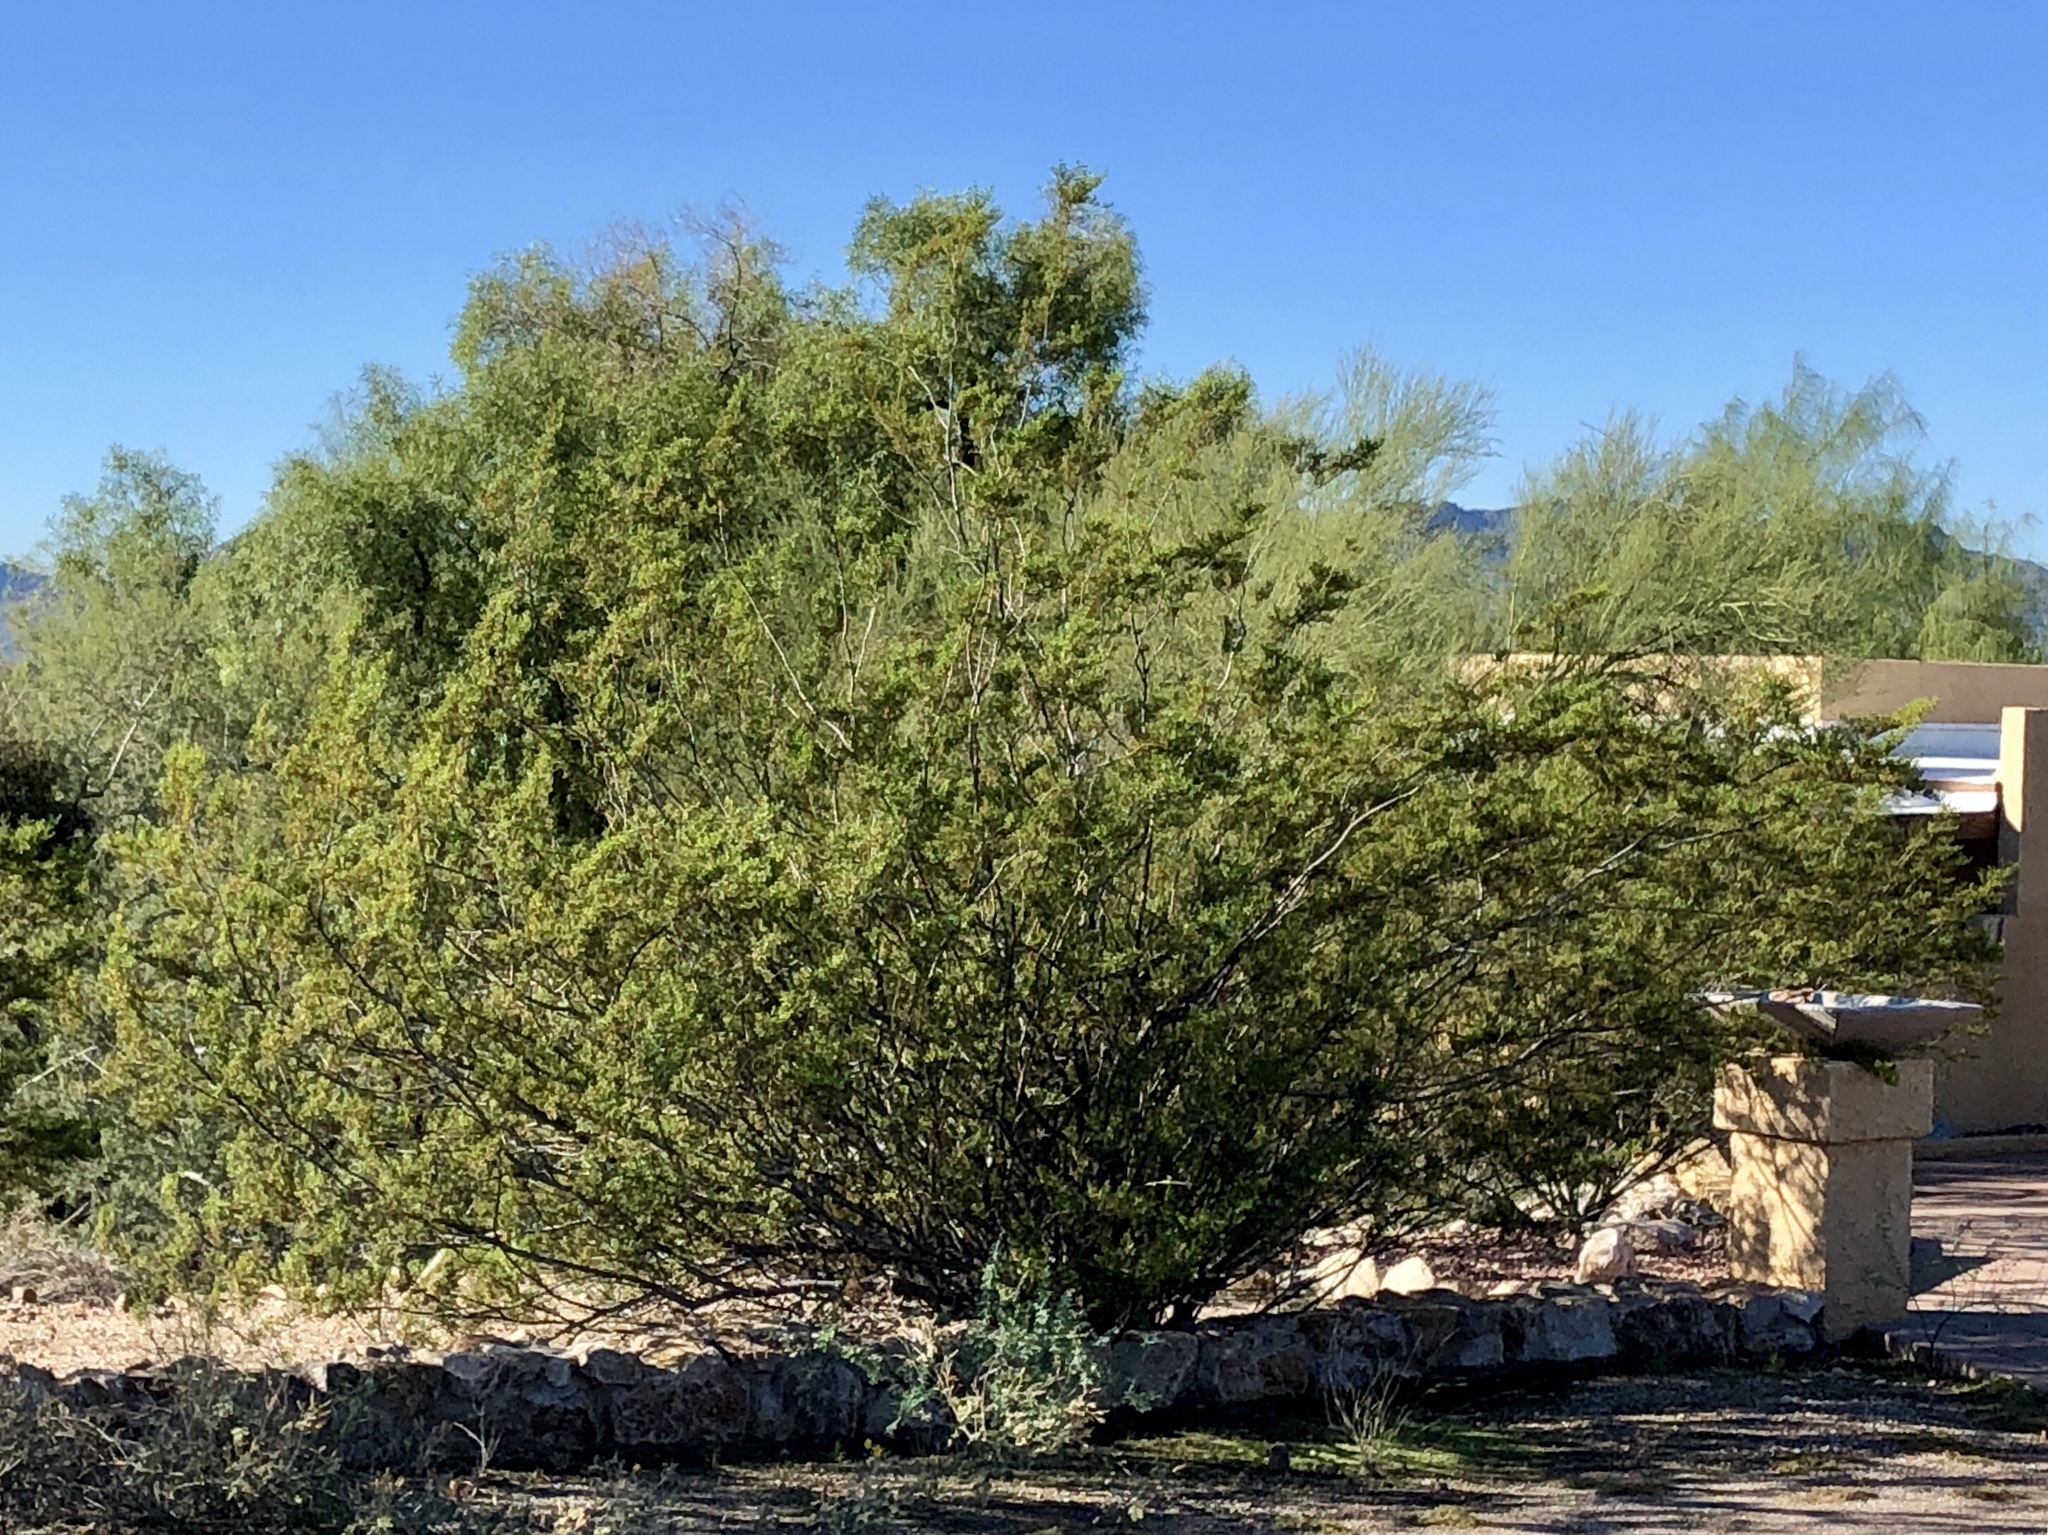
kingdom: Plantae
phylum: Tracheophyta
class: Magnoliopsida
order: Zygophyllales
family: Zygophyllaceae
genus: Larrea
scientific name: Larrea tridentata
